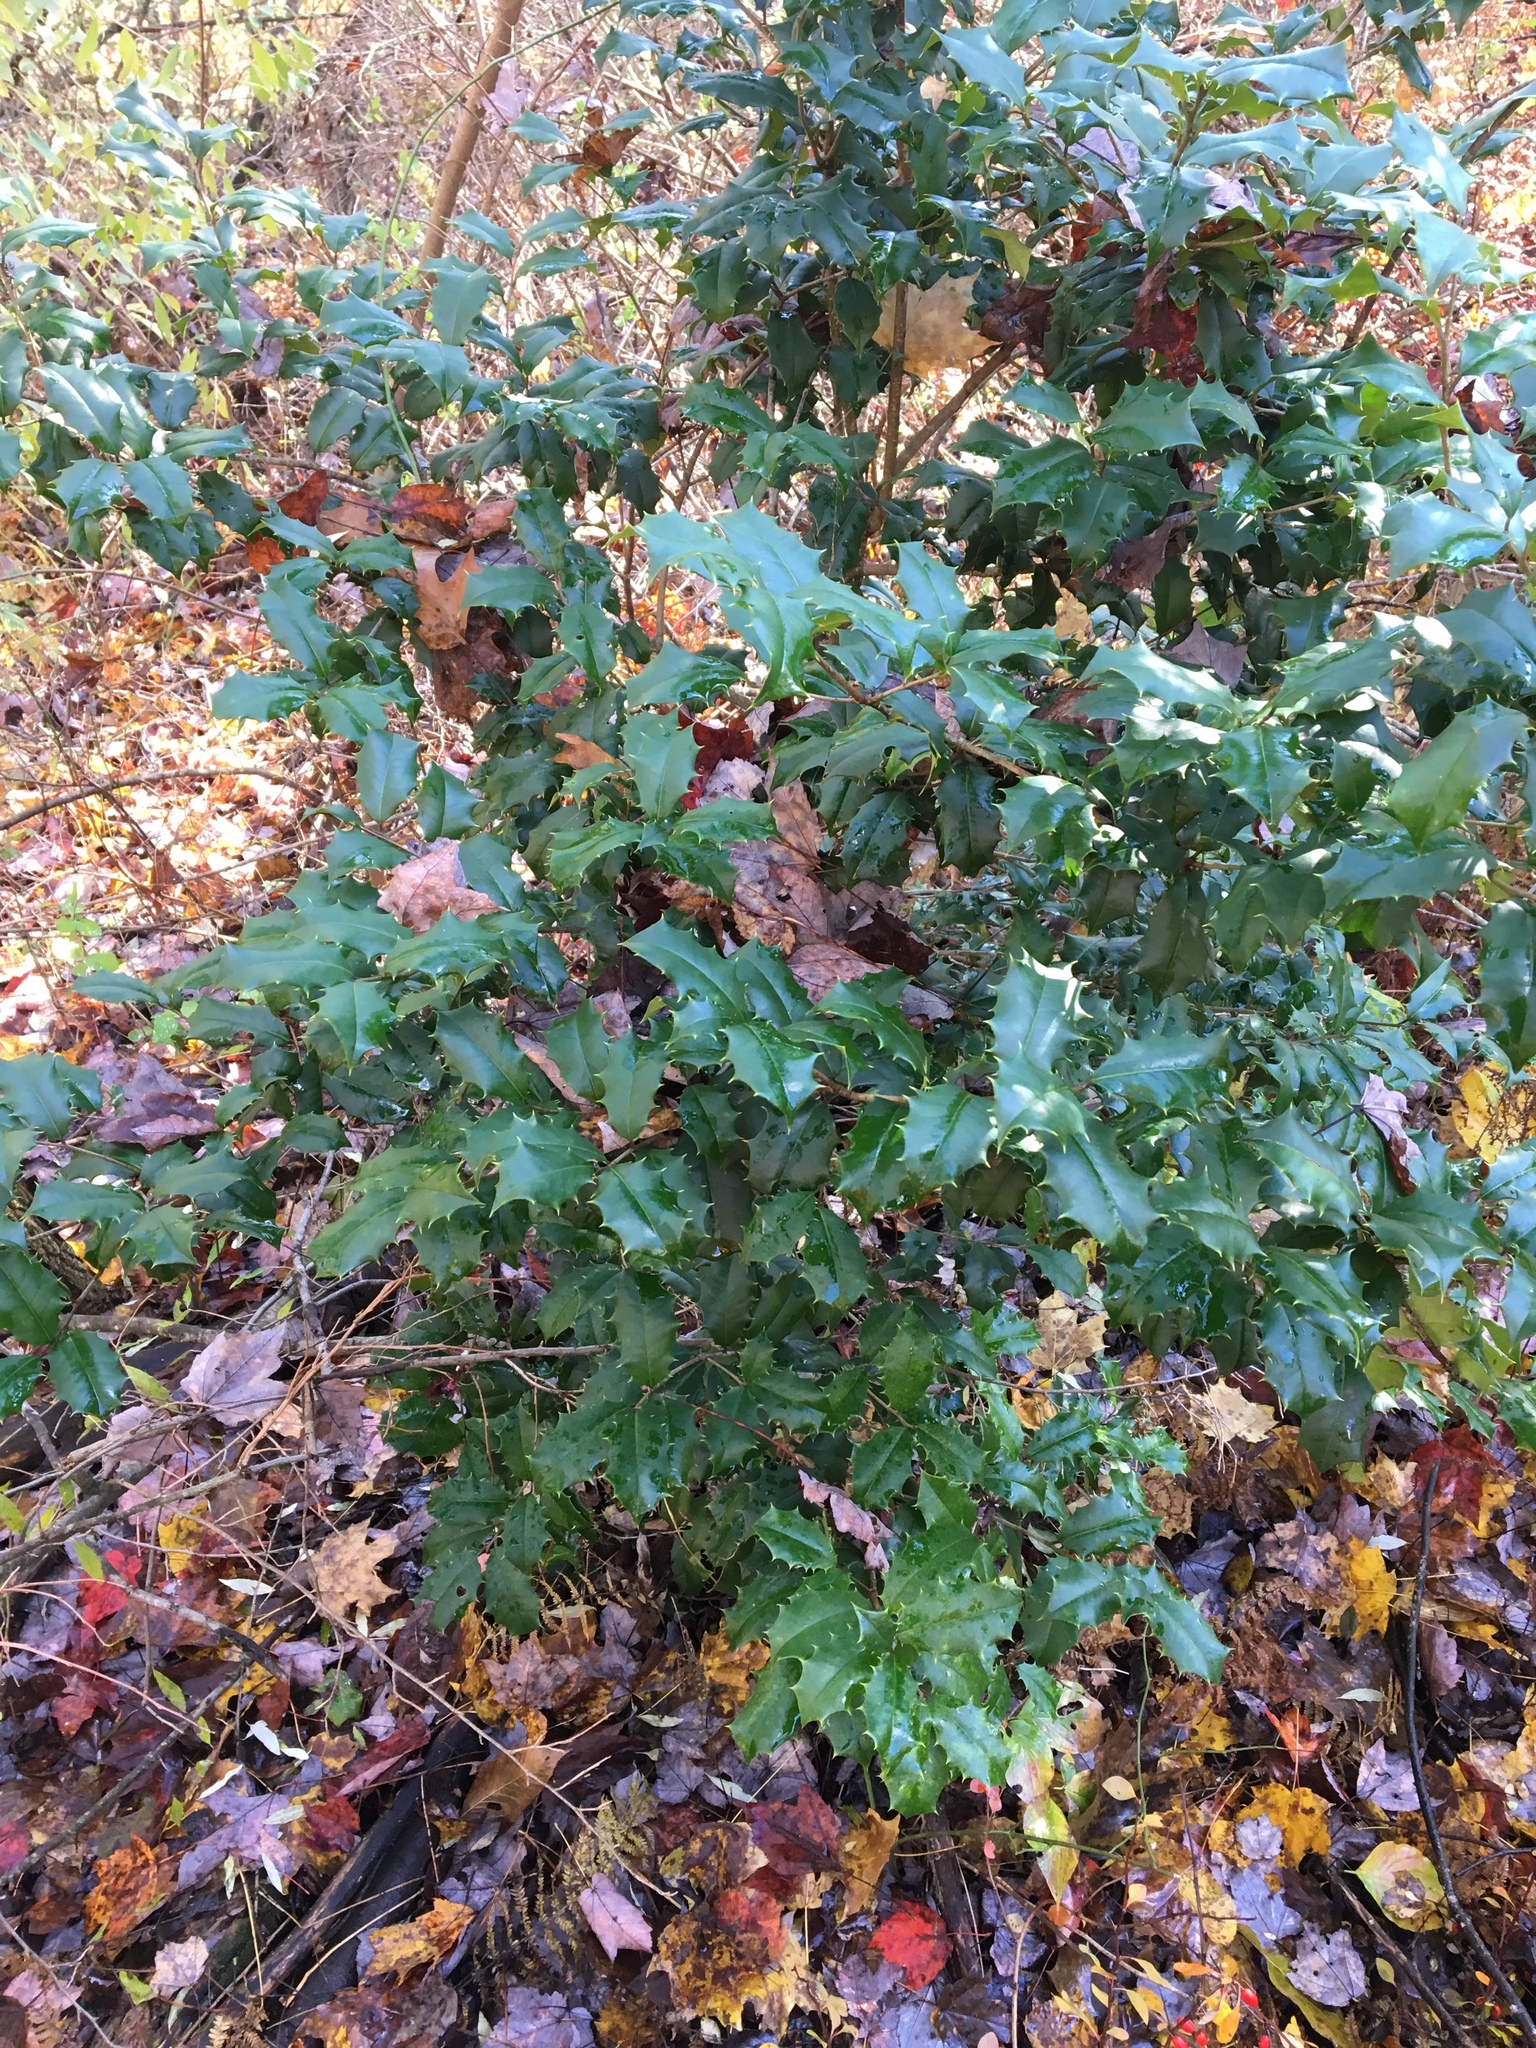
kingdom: Plantae
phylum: Tracheophyta
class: Magnoliopsida
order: Aquifoliales
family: Aquifoliaceae
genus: Ilex
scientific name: Ilex opaca
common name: American holly
